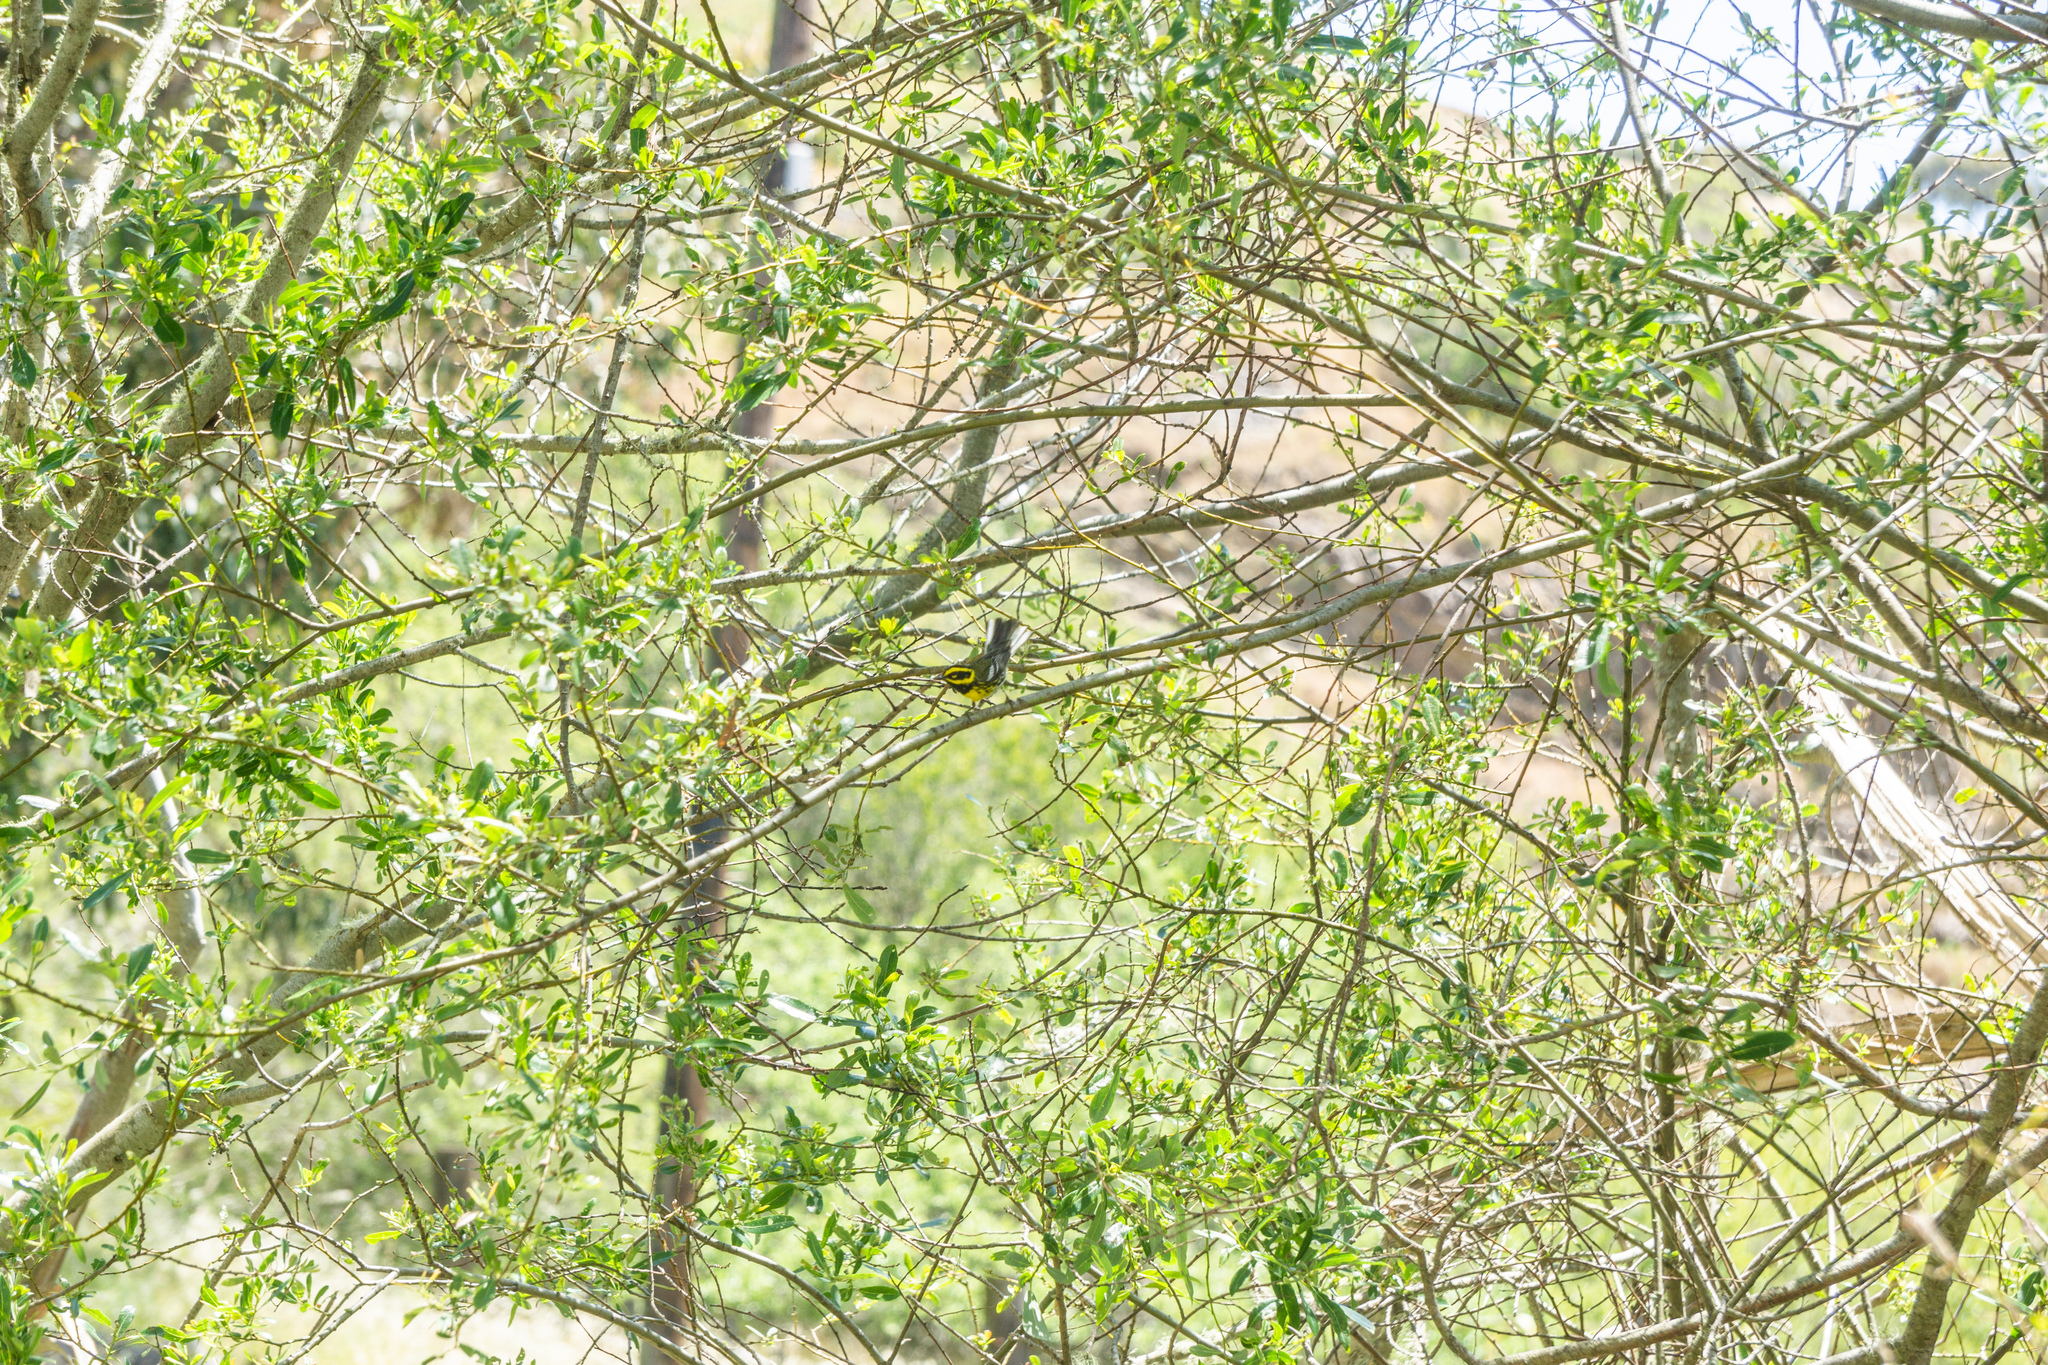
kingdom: Animalia
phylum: Chordata
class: Aves
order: Passeriformes
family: Parulidae
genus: Setophaga
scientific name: Setophaga townsendi
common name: Townsend's warbler
